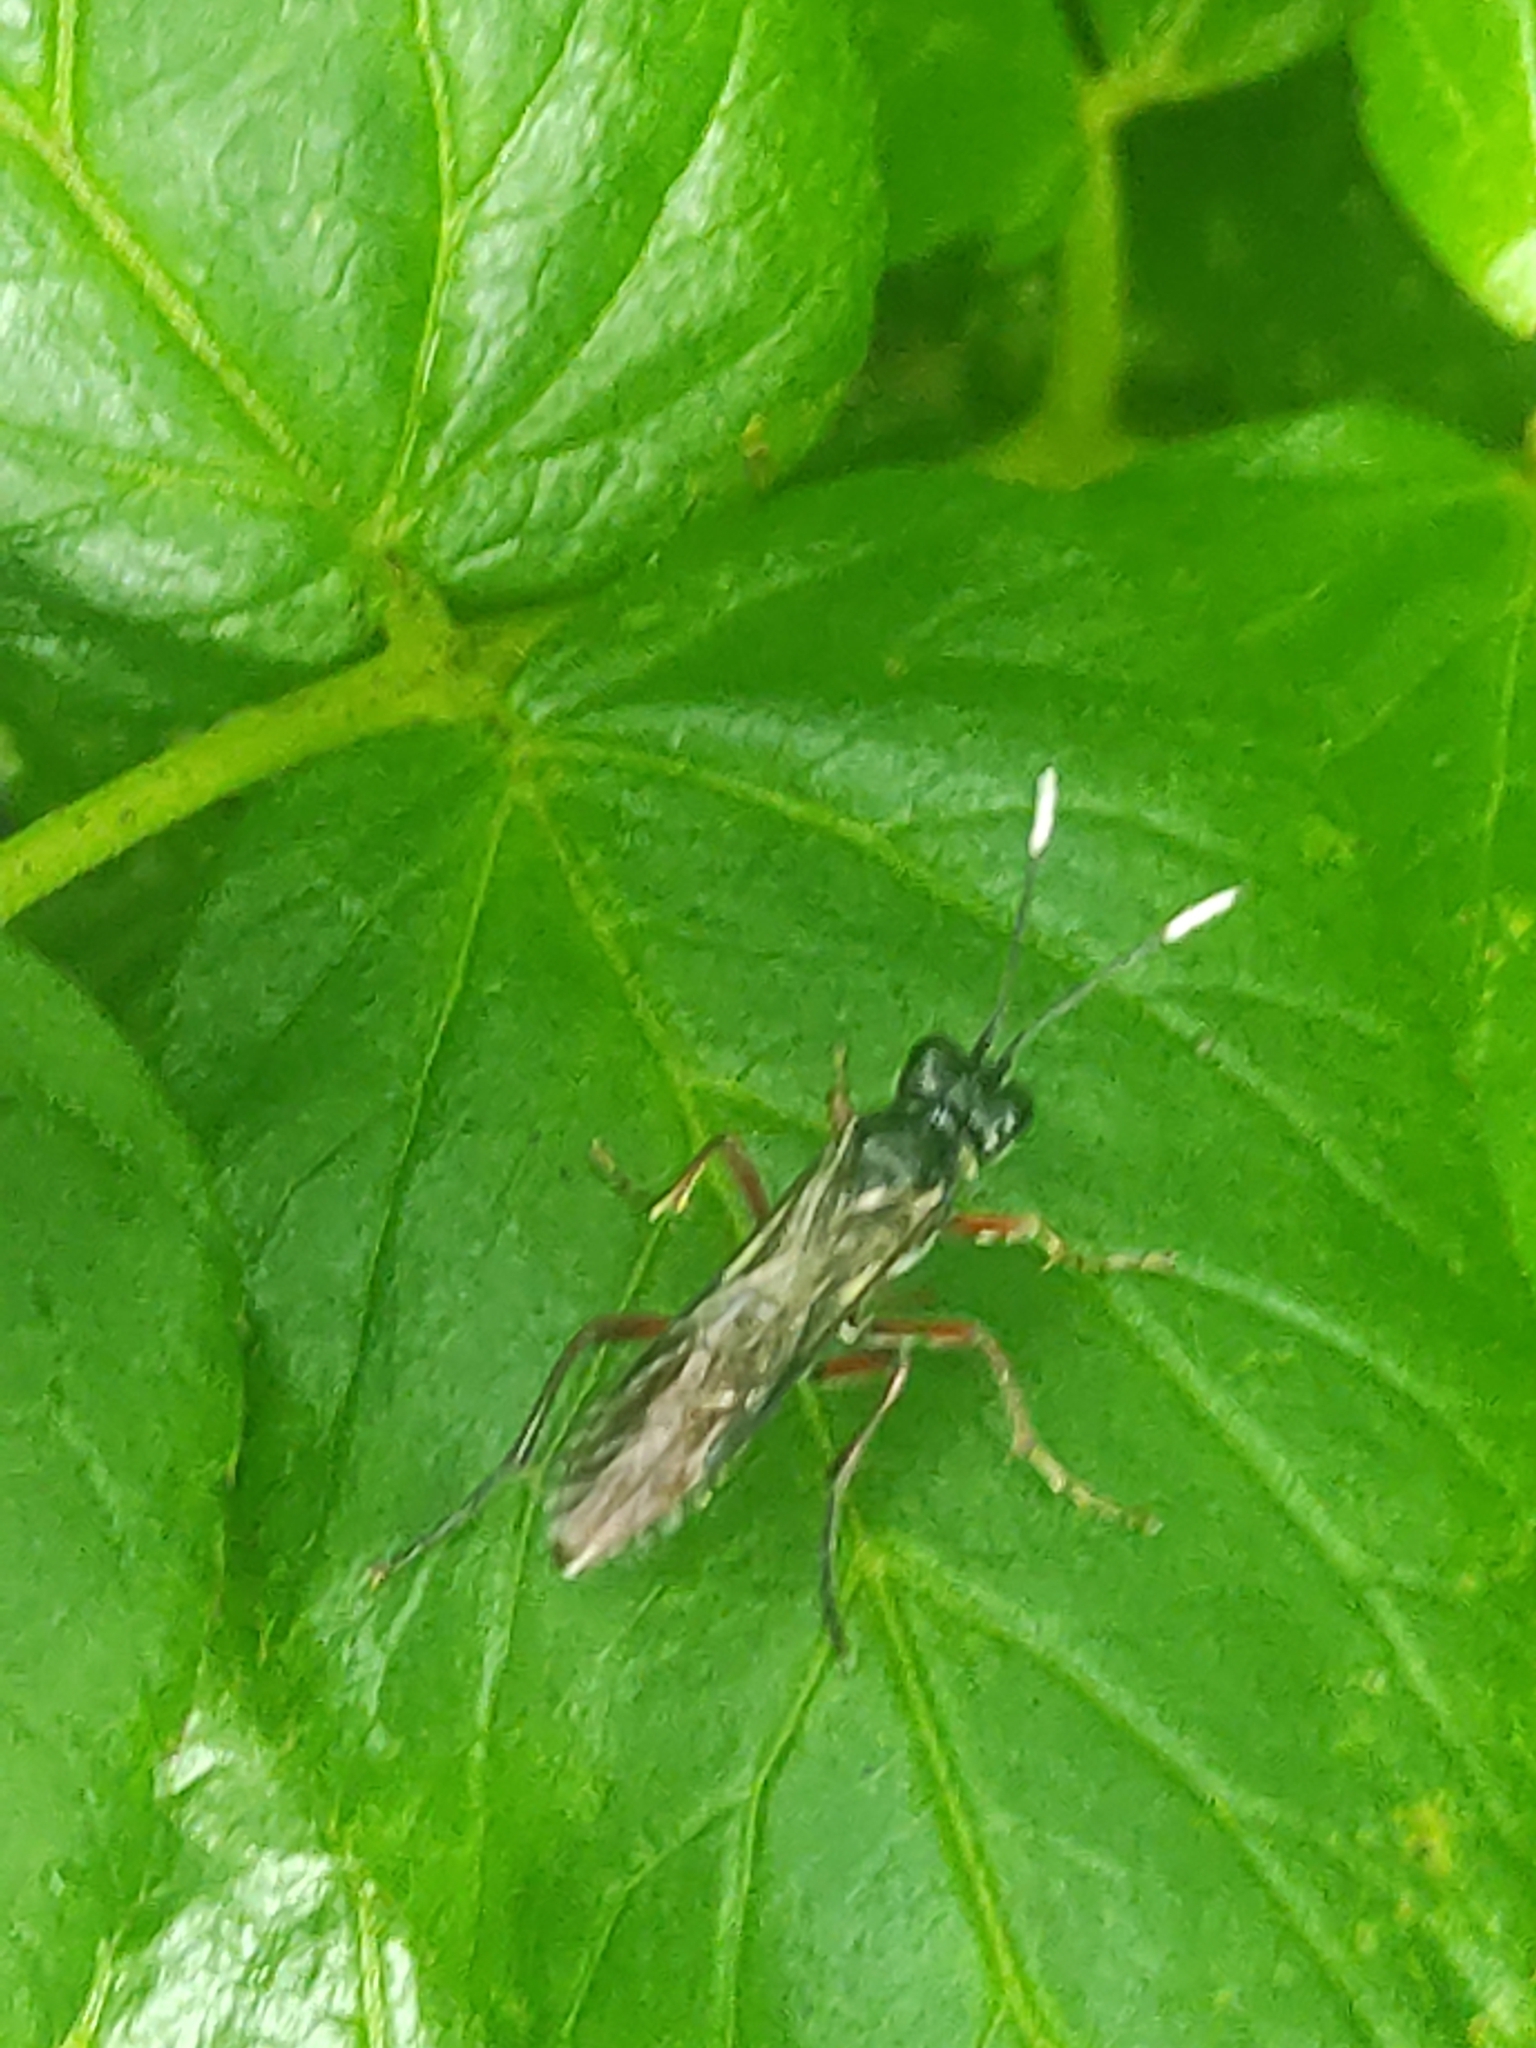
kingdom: Animalia
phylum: Arthropoda
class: Insecta
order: Hymenoptera
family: Tenthredinidae
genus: Tenthredo
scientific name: Tenthredo semicolon
